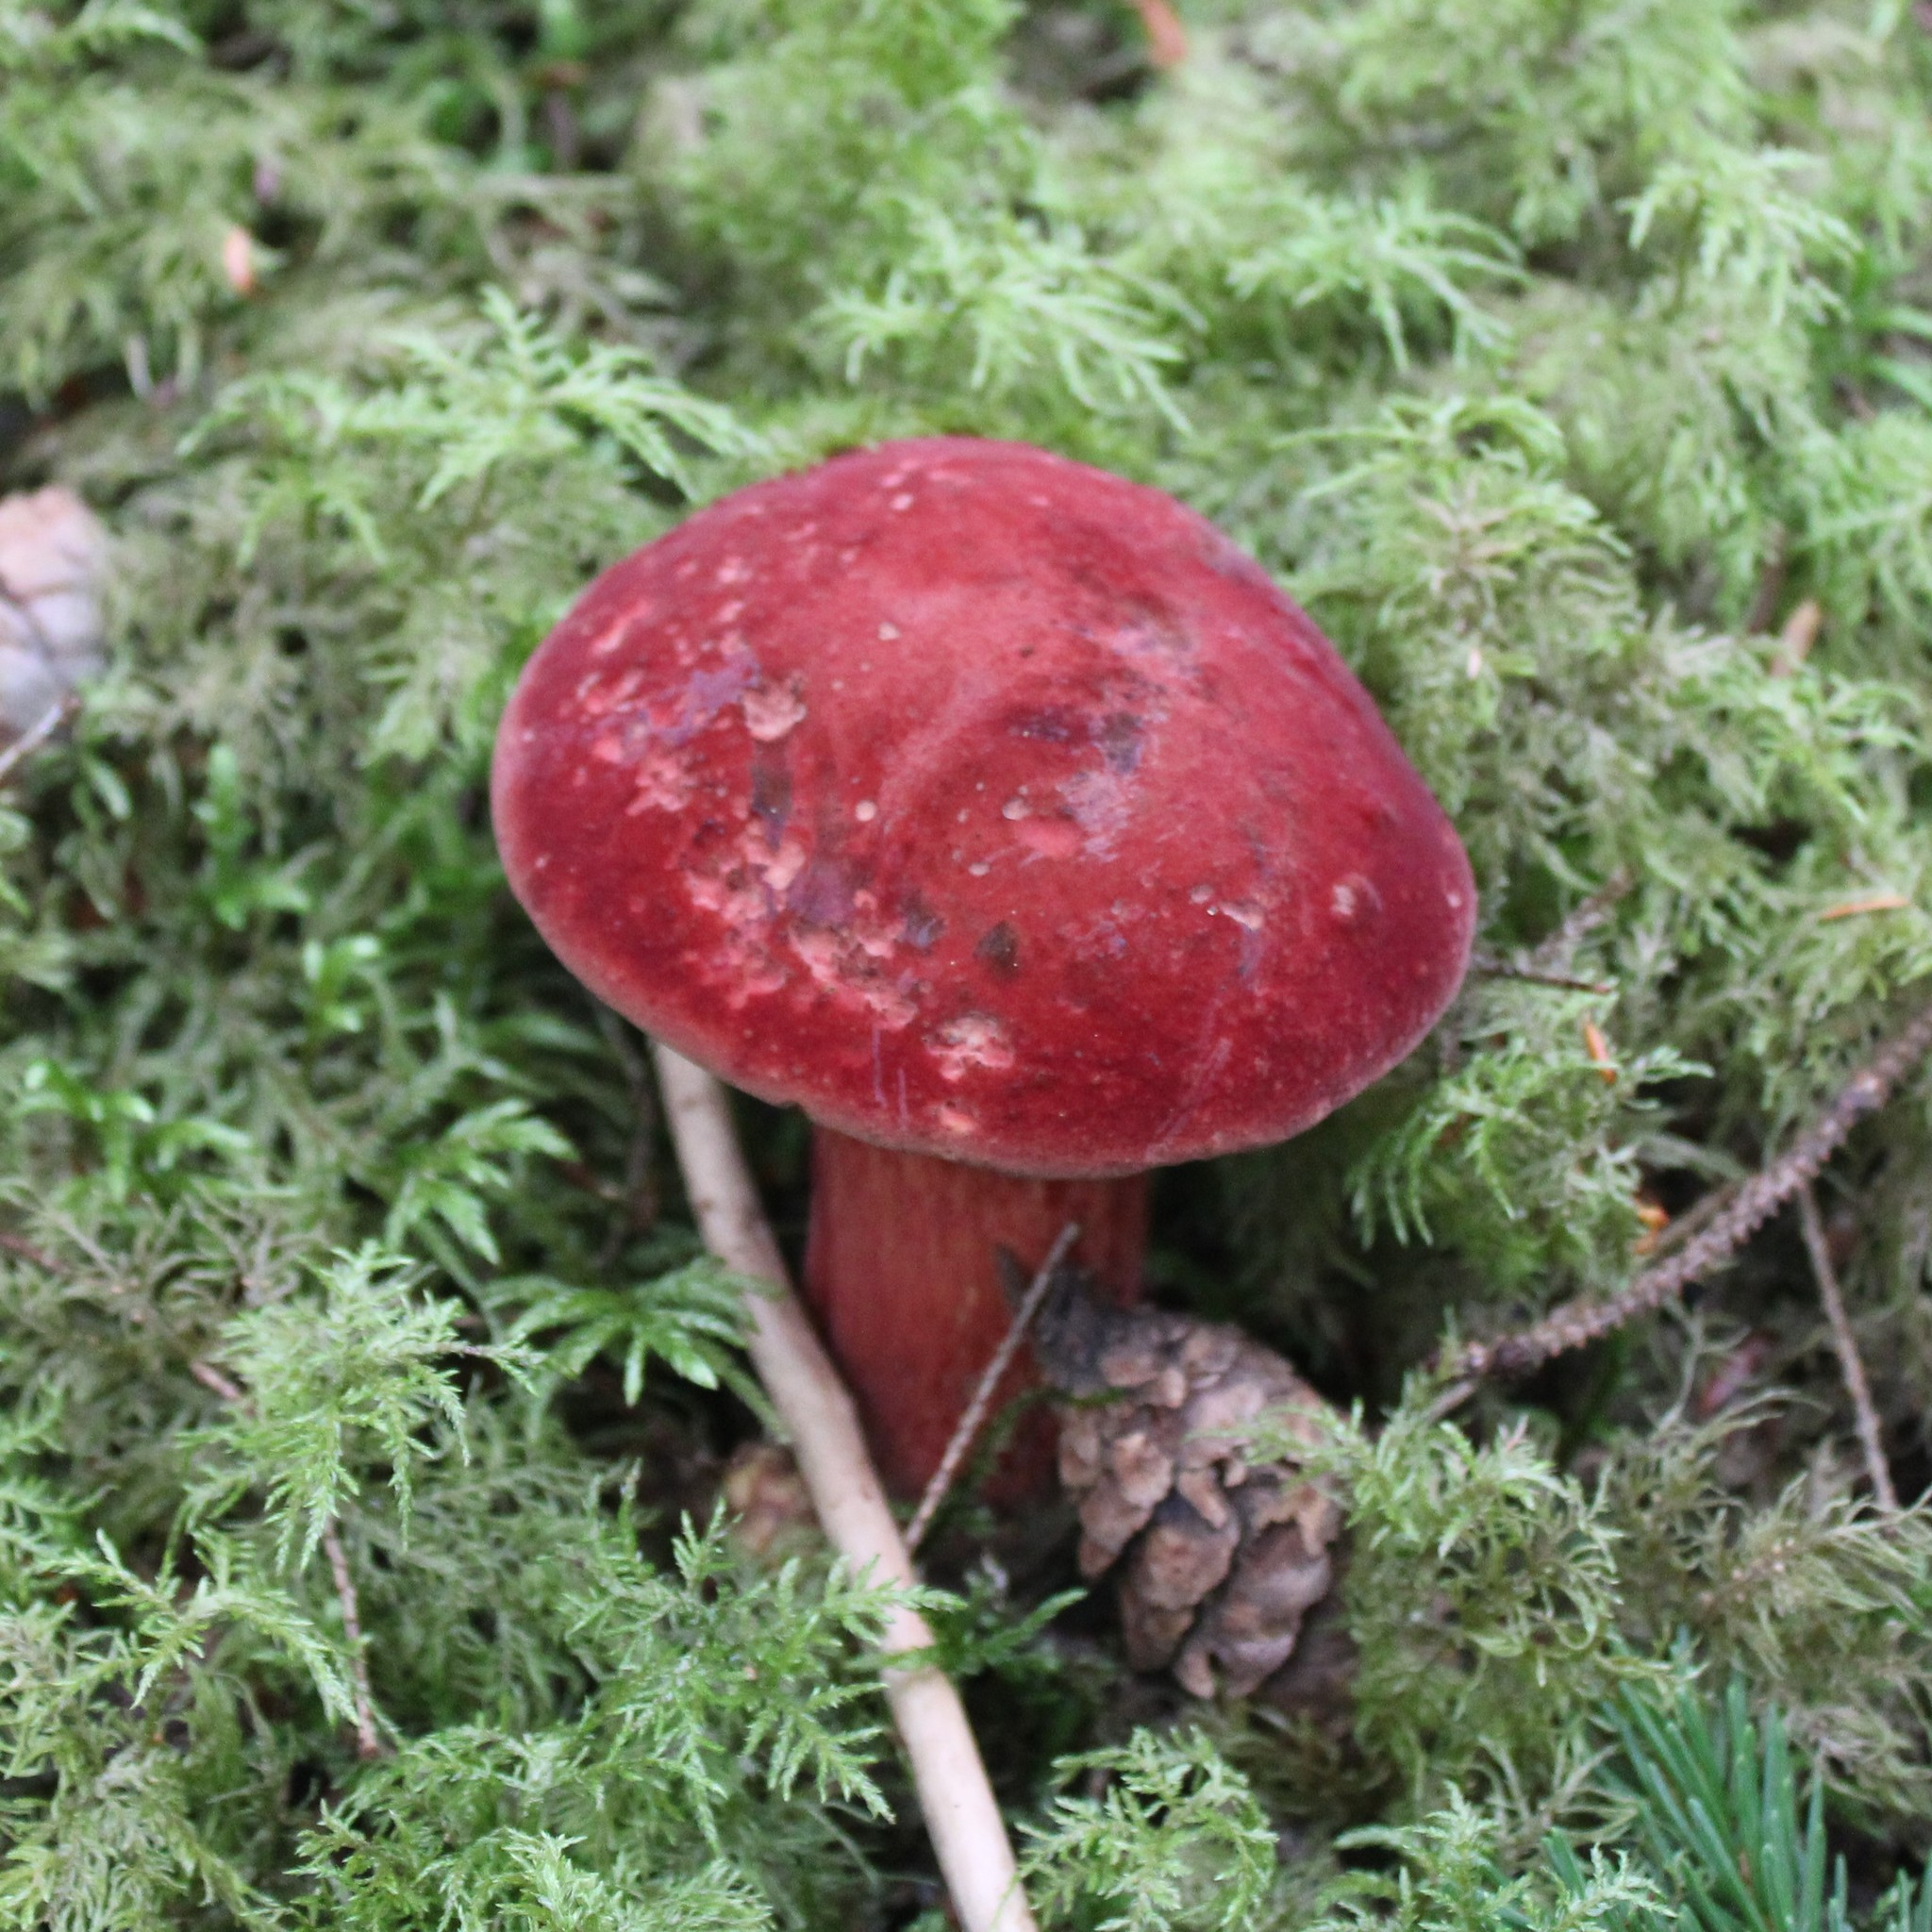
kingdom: Fungi
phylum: Basidiomycota
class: Agaricomycetes
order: Boletales
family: Boletaceae
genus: Baorangia
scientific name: Baorangia bicolor
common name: Two-colored bolete
